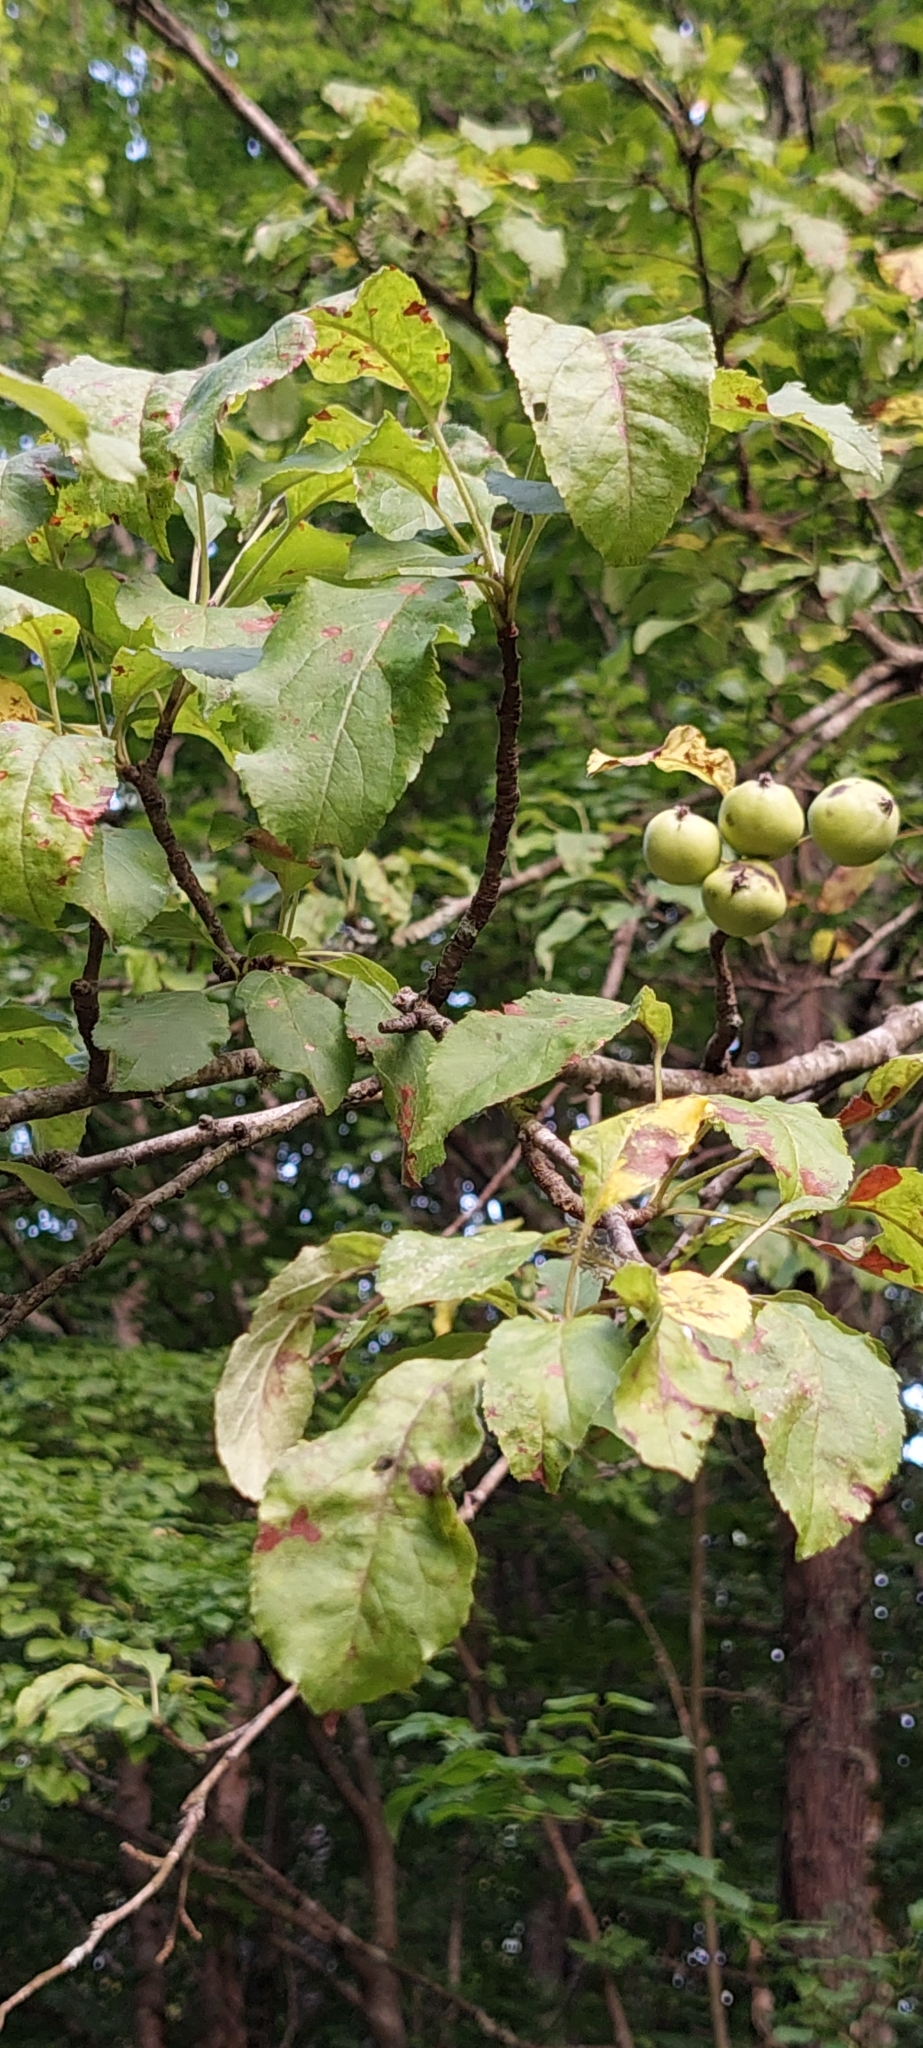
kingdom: Plantae
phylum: Tracheophyta
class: Magnoliopsida
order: Rosales
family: Rosaceae
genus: Malus
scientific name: Malus sylvestris
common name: Crab apple
